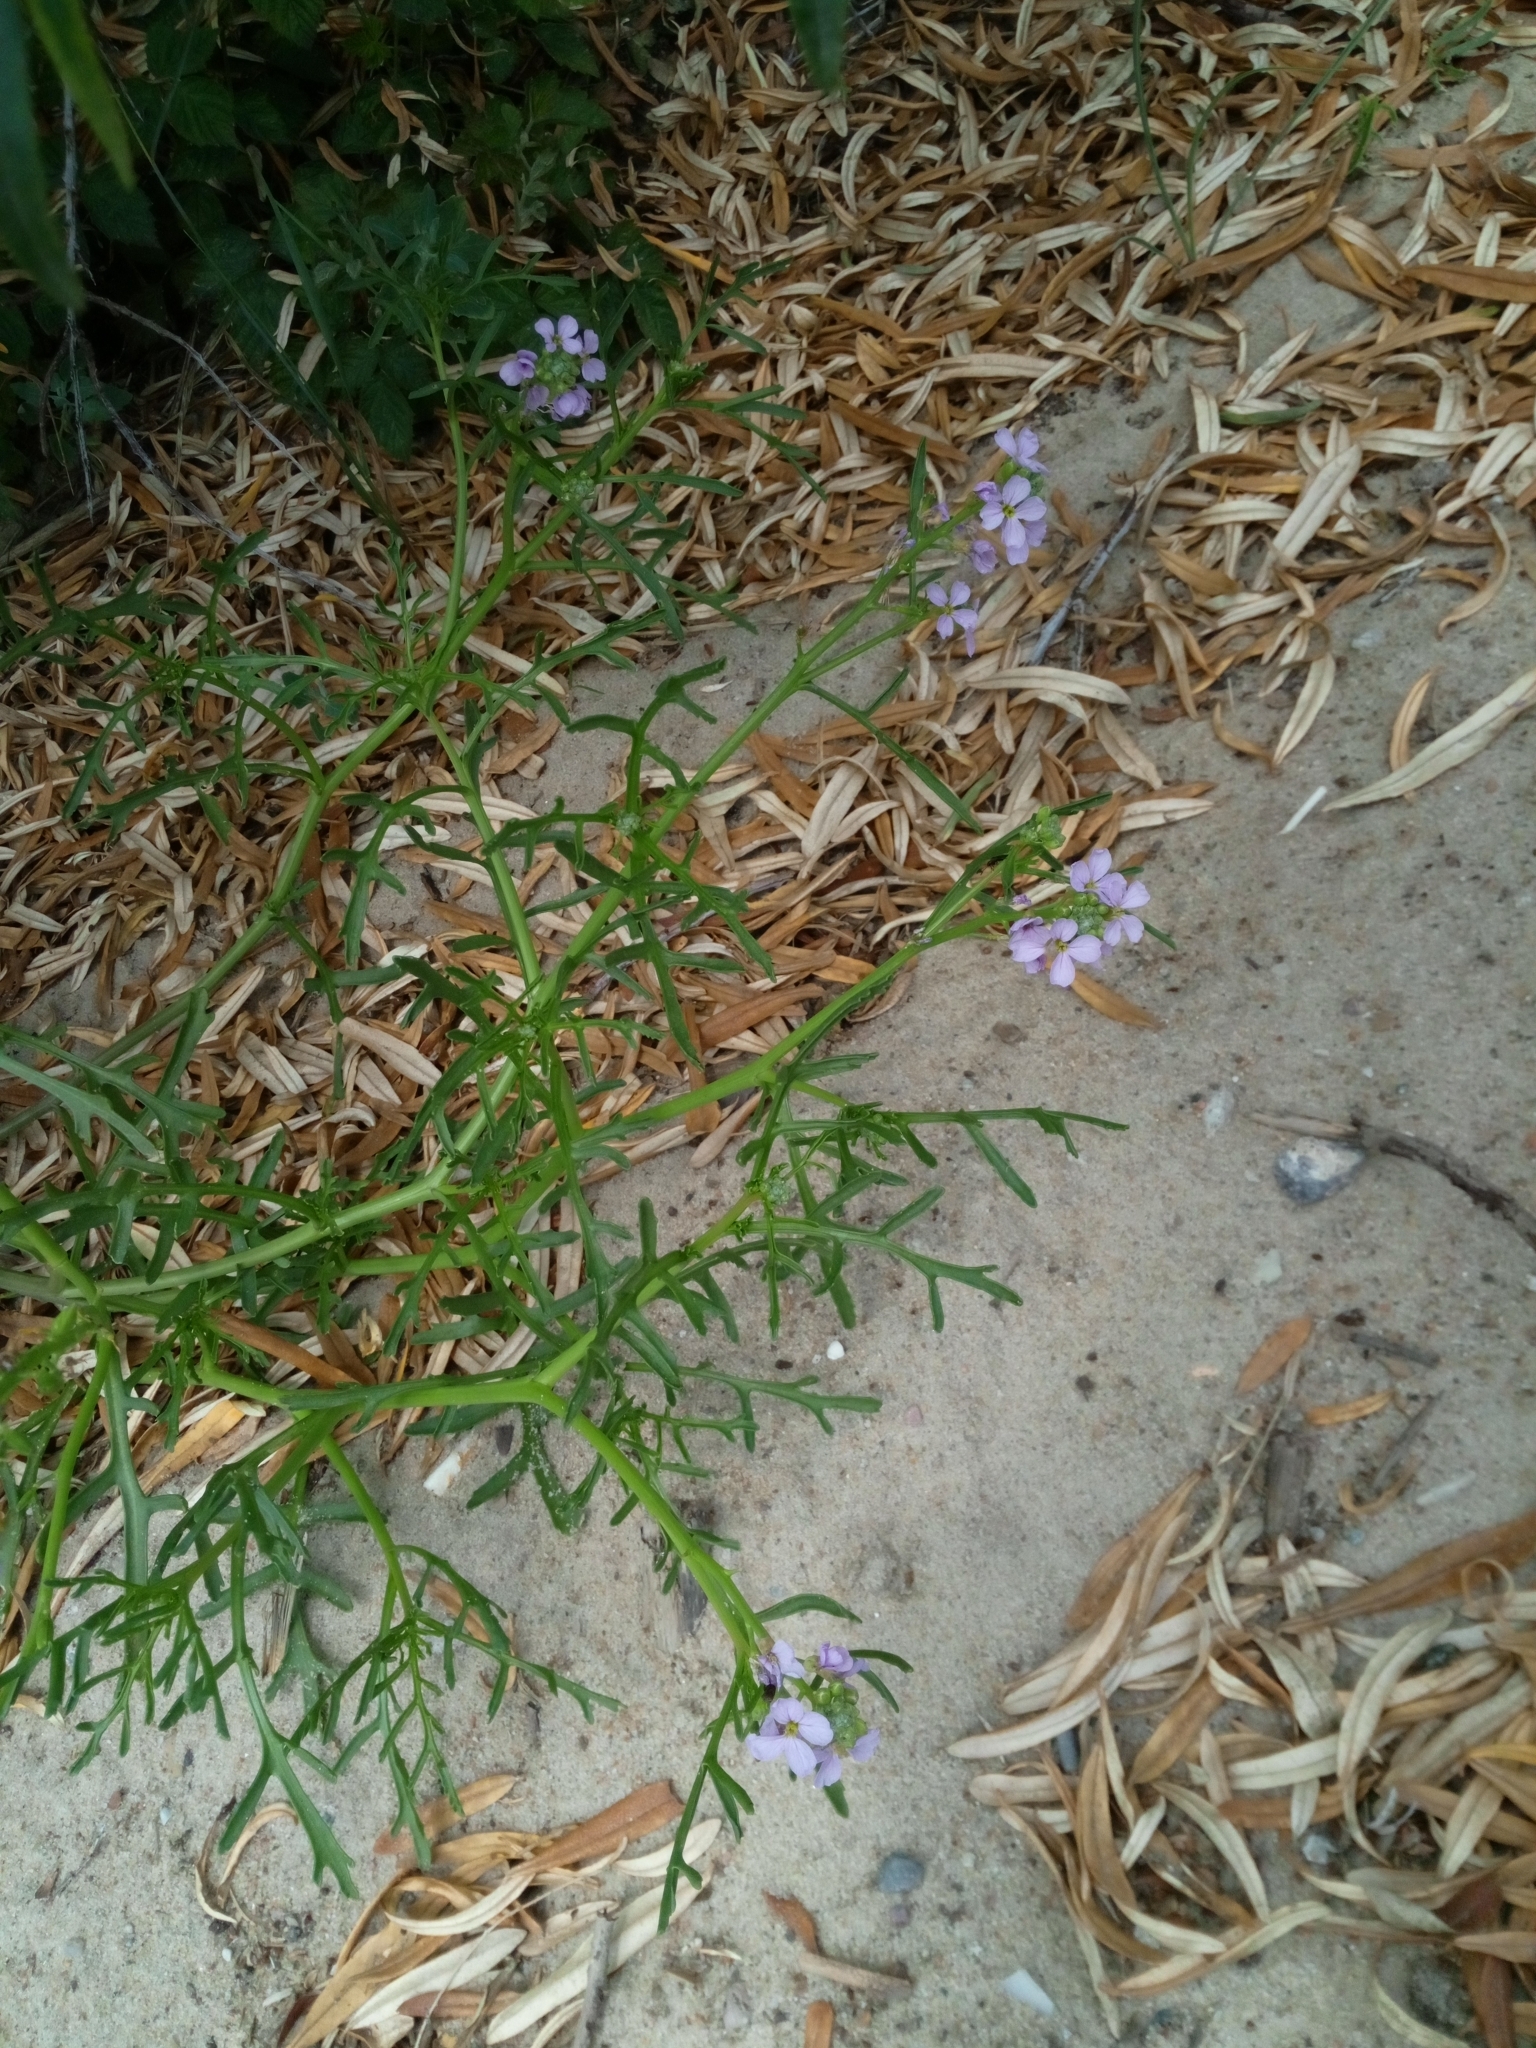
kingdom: Plantae
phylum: Tracheophyta
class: Magnoliopsida
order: Brassicales
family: Brassicaceae
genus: Cakile
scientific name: Cakile maritima
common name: Sea rocket
